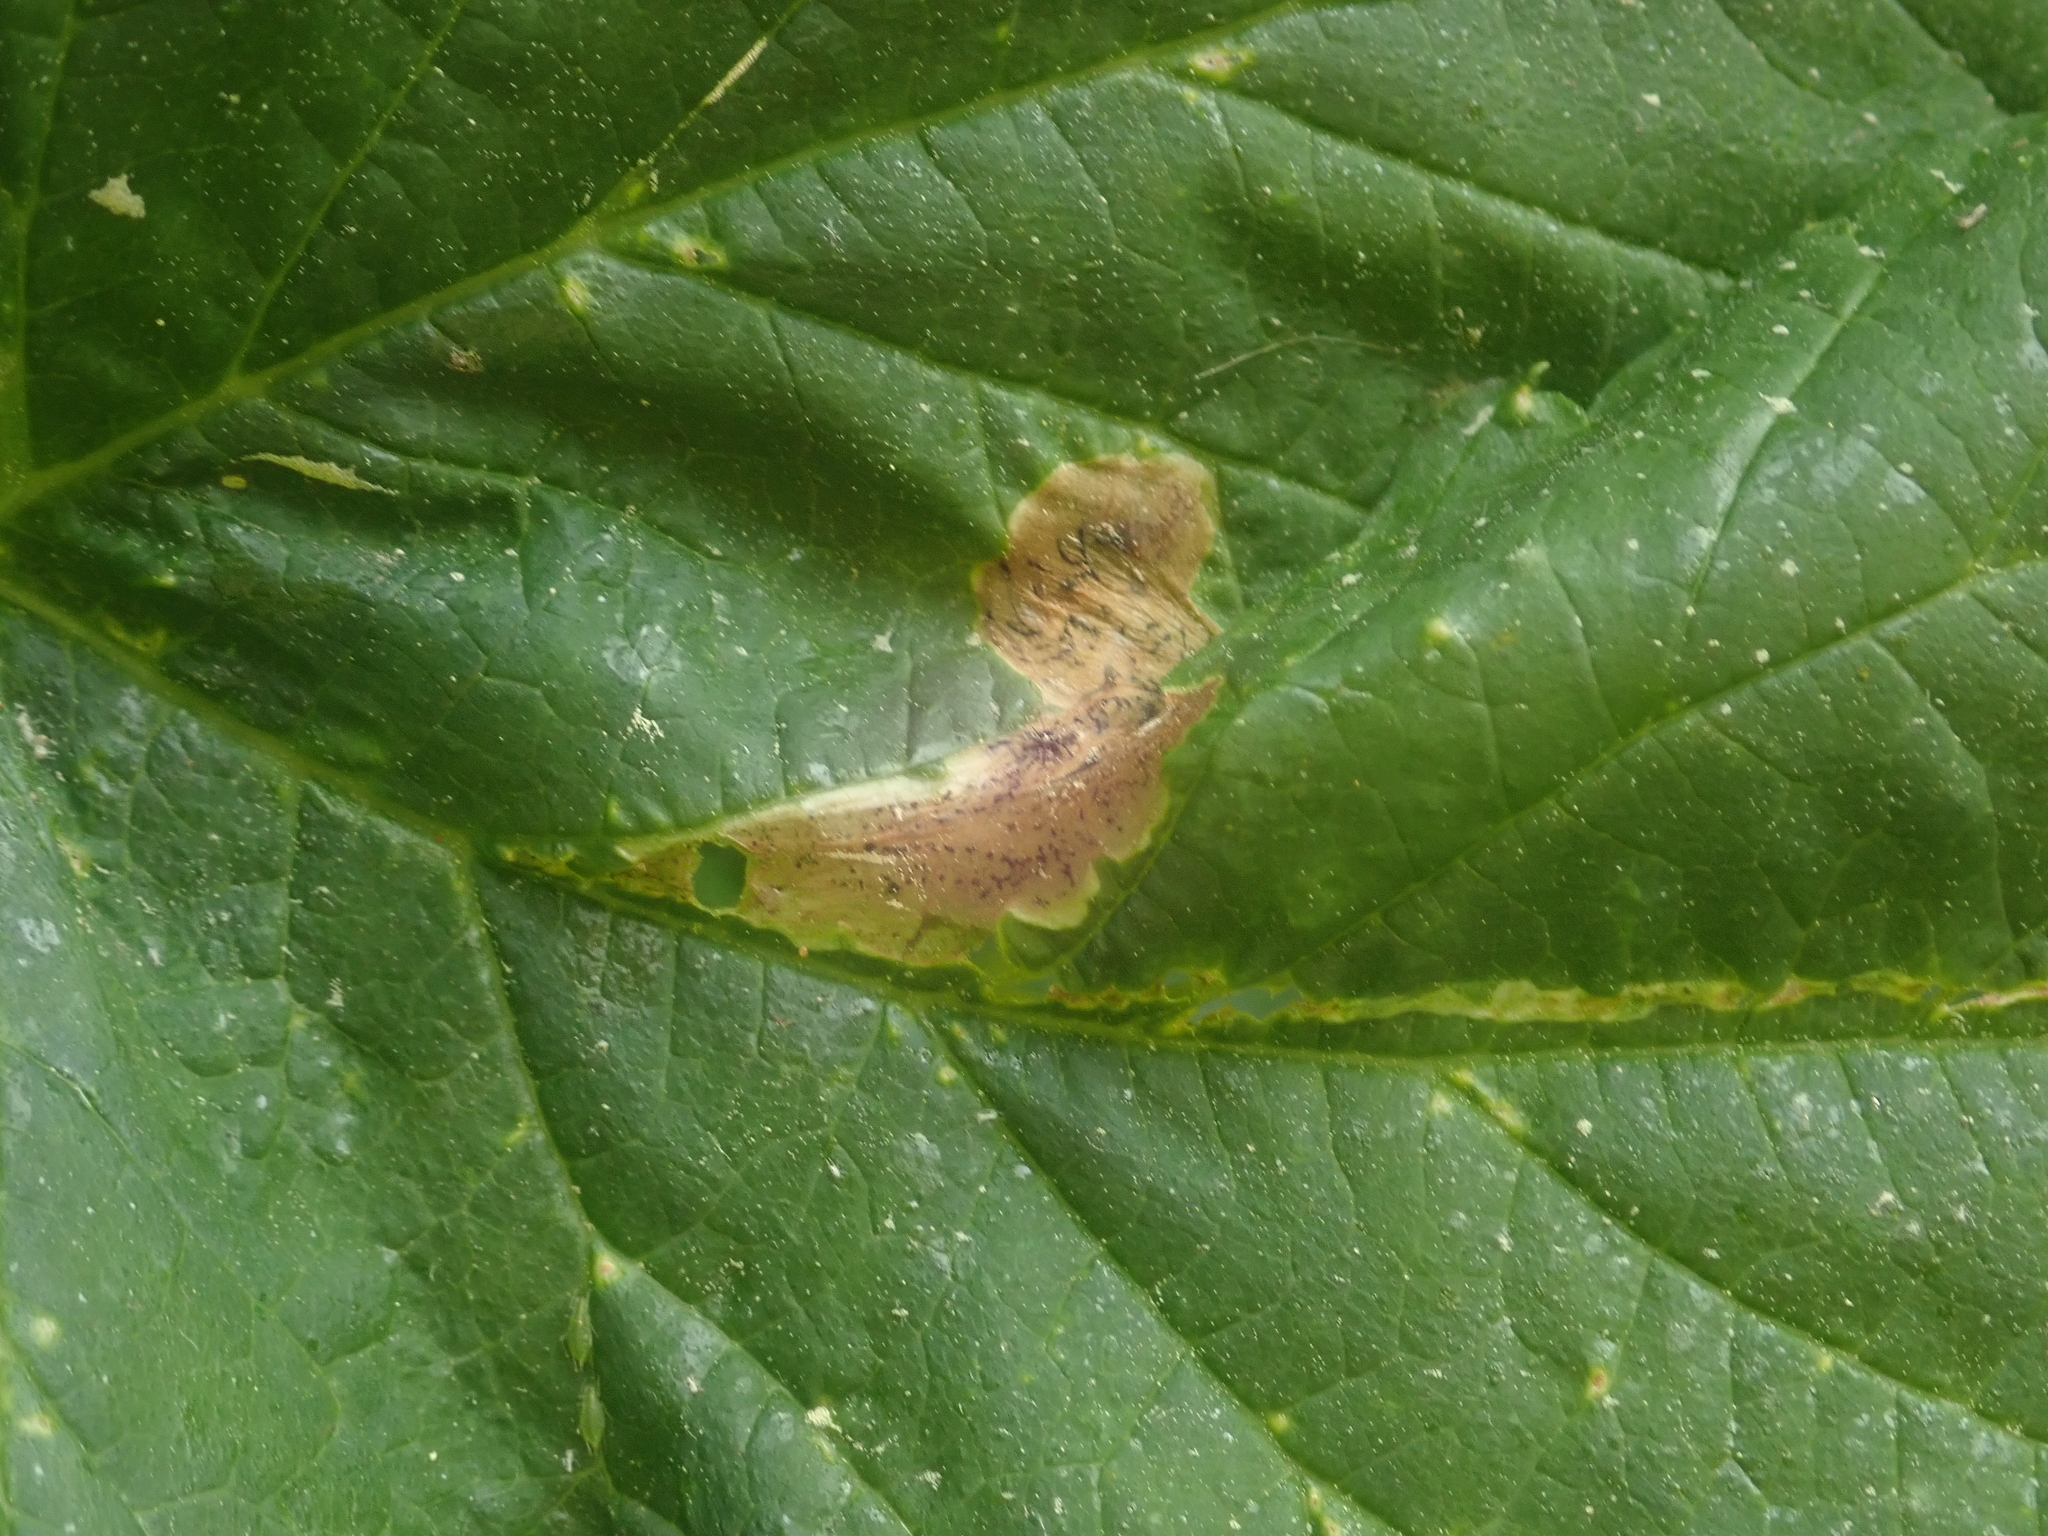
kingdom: Animalia
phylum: Arthropoda
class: Insecta
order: Diptera
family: Agromyzidae
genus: Agromyza
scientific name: Agromyza igniceps
